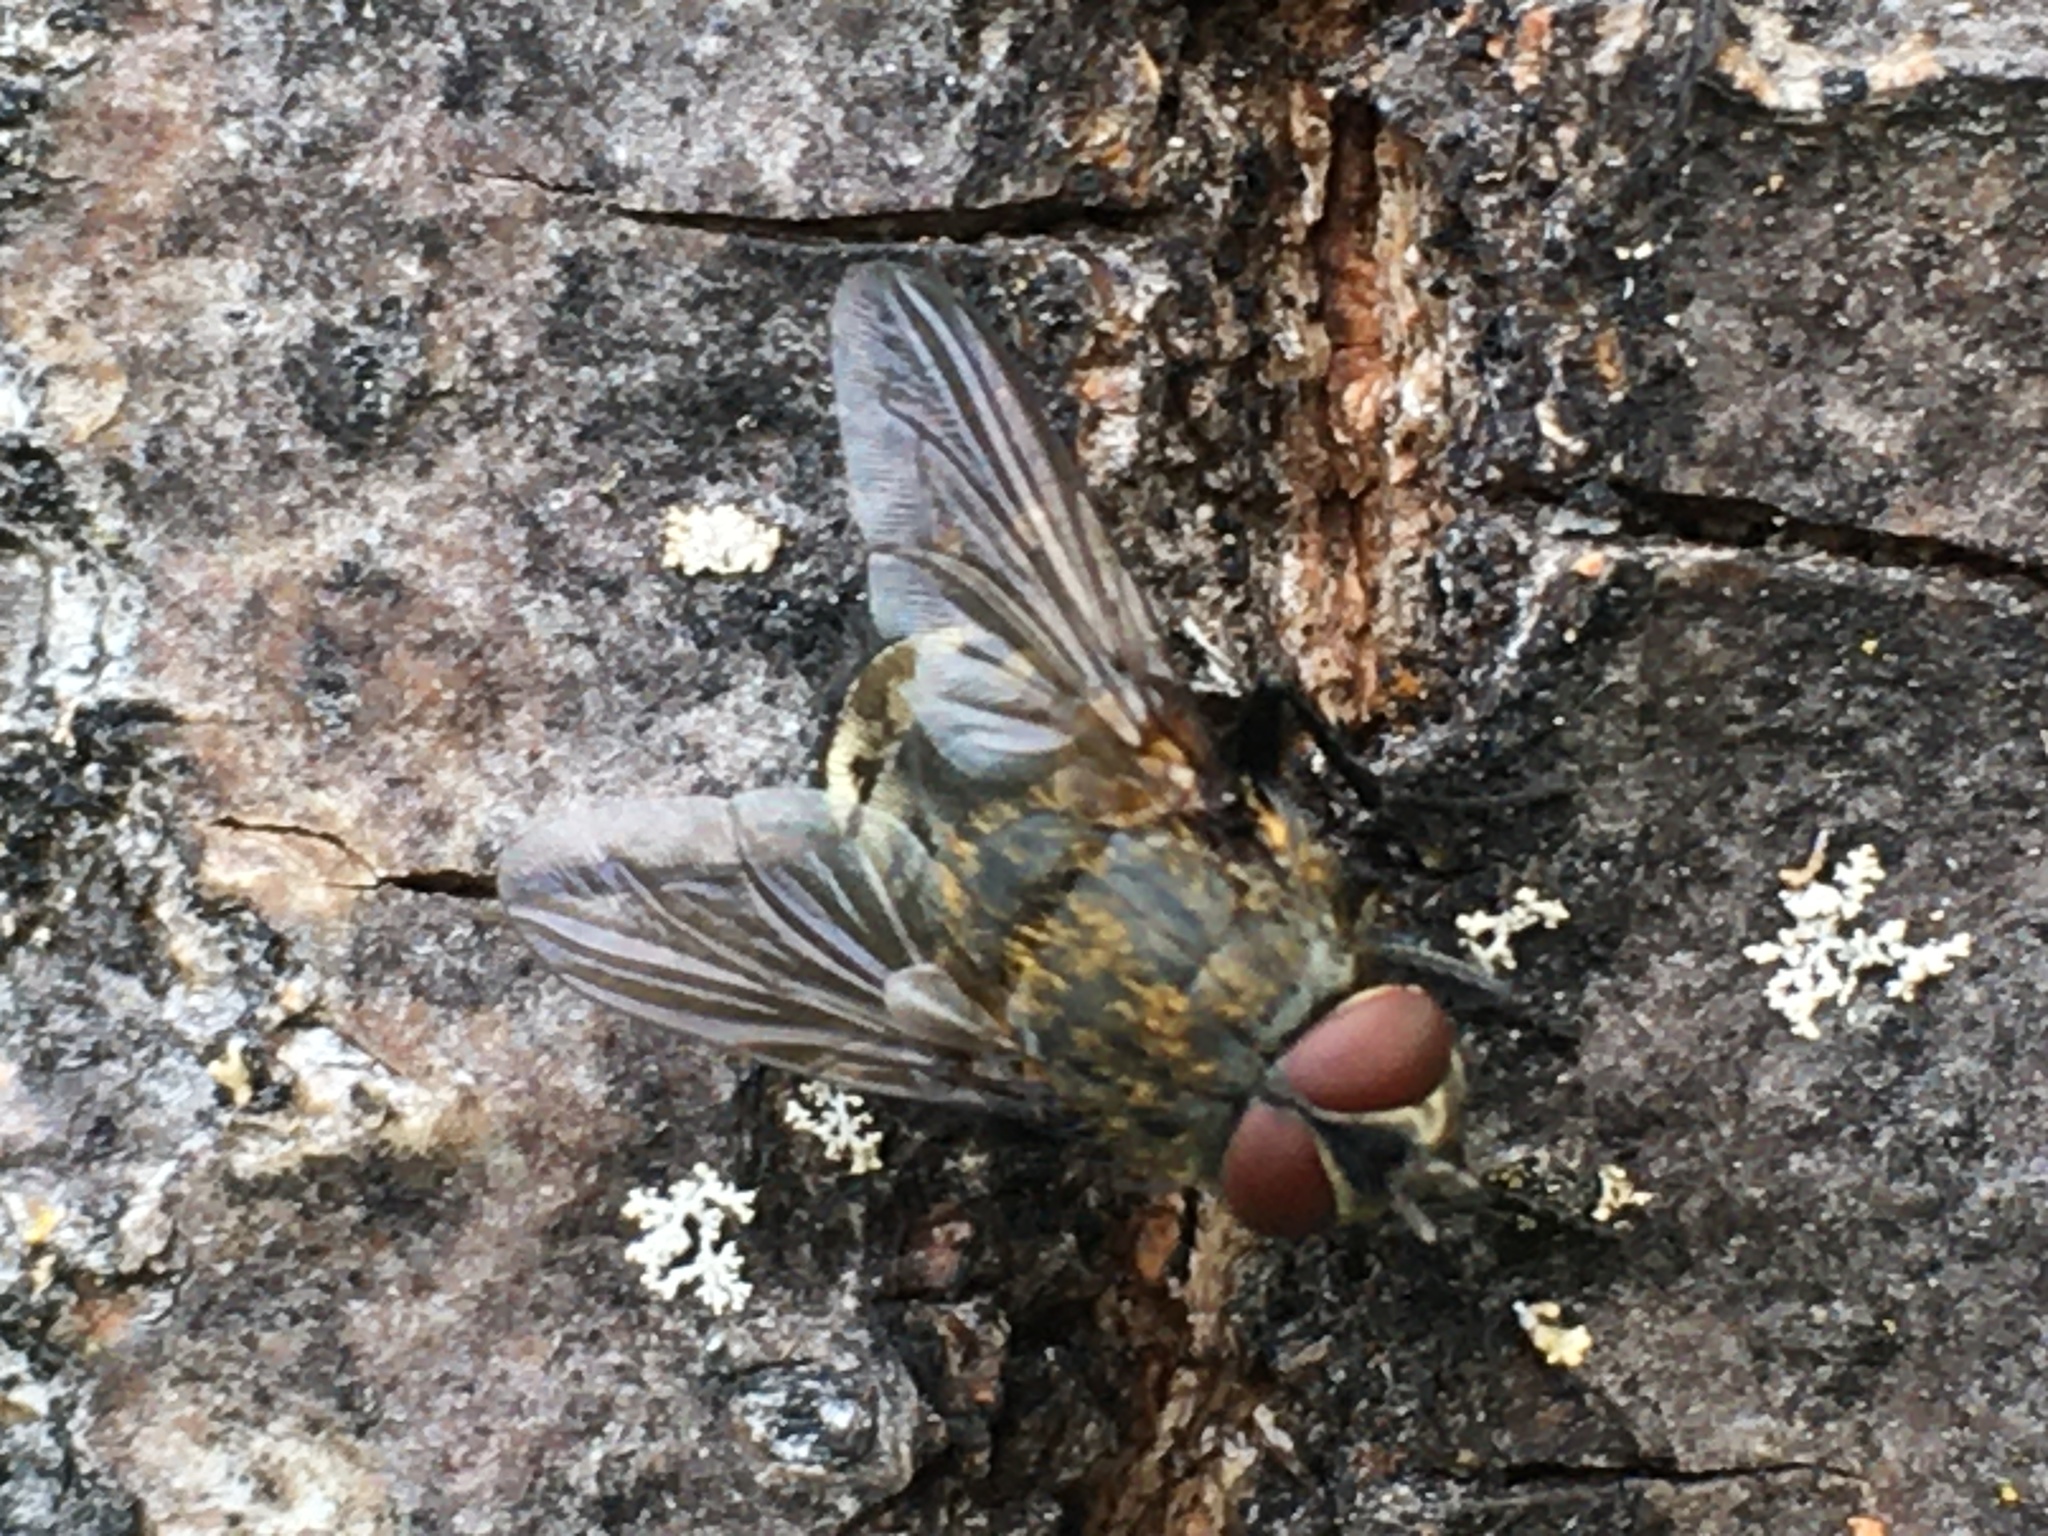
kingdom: Animalia
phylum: Arthropoda
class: Insecta
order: Diptera
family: Polleniidae
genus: Pollenia
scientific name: Pollenia
